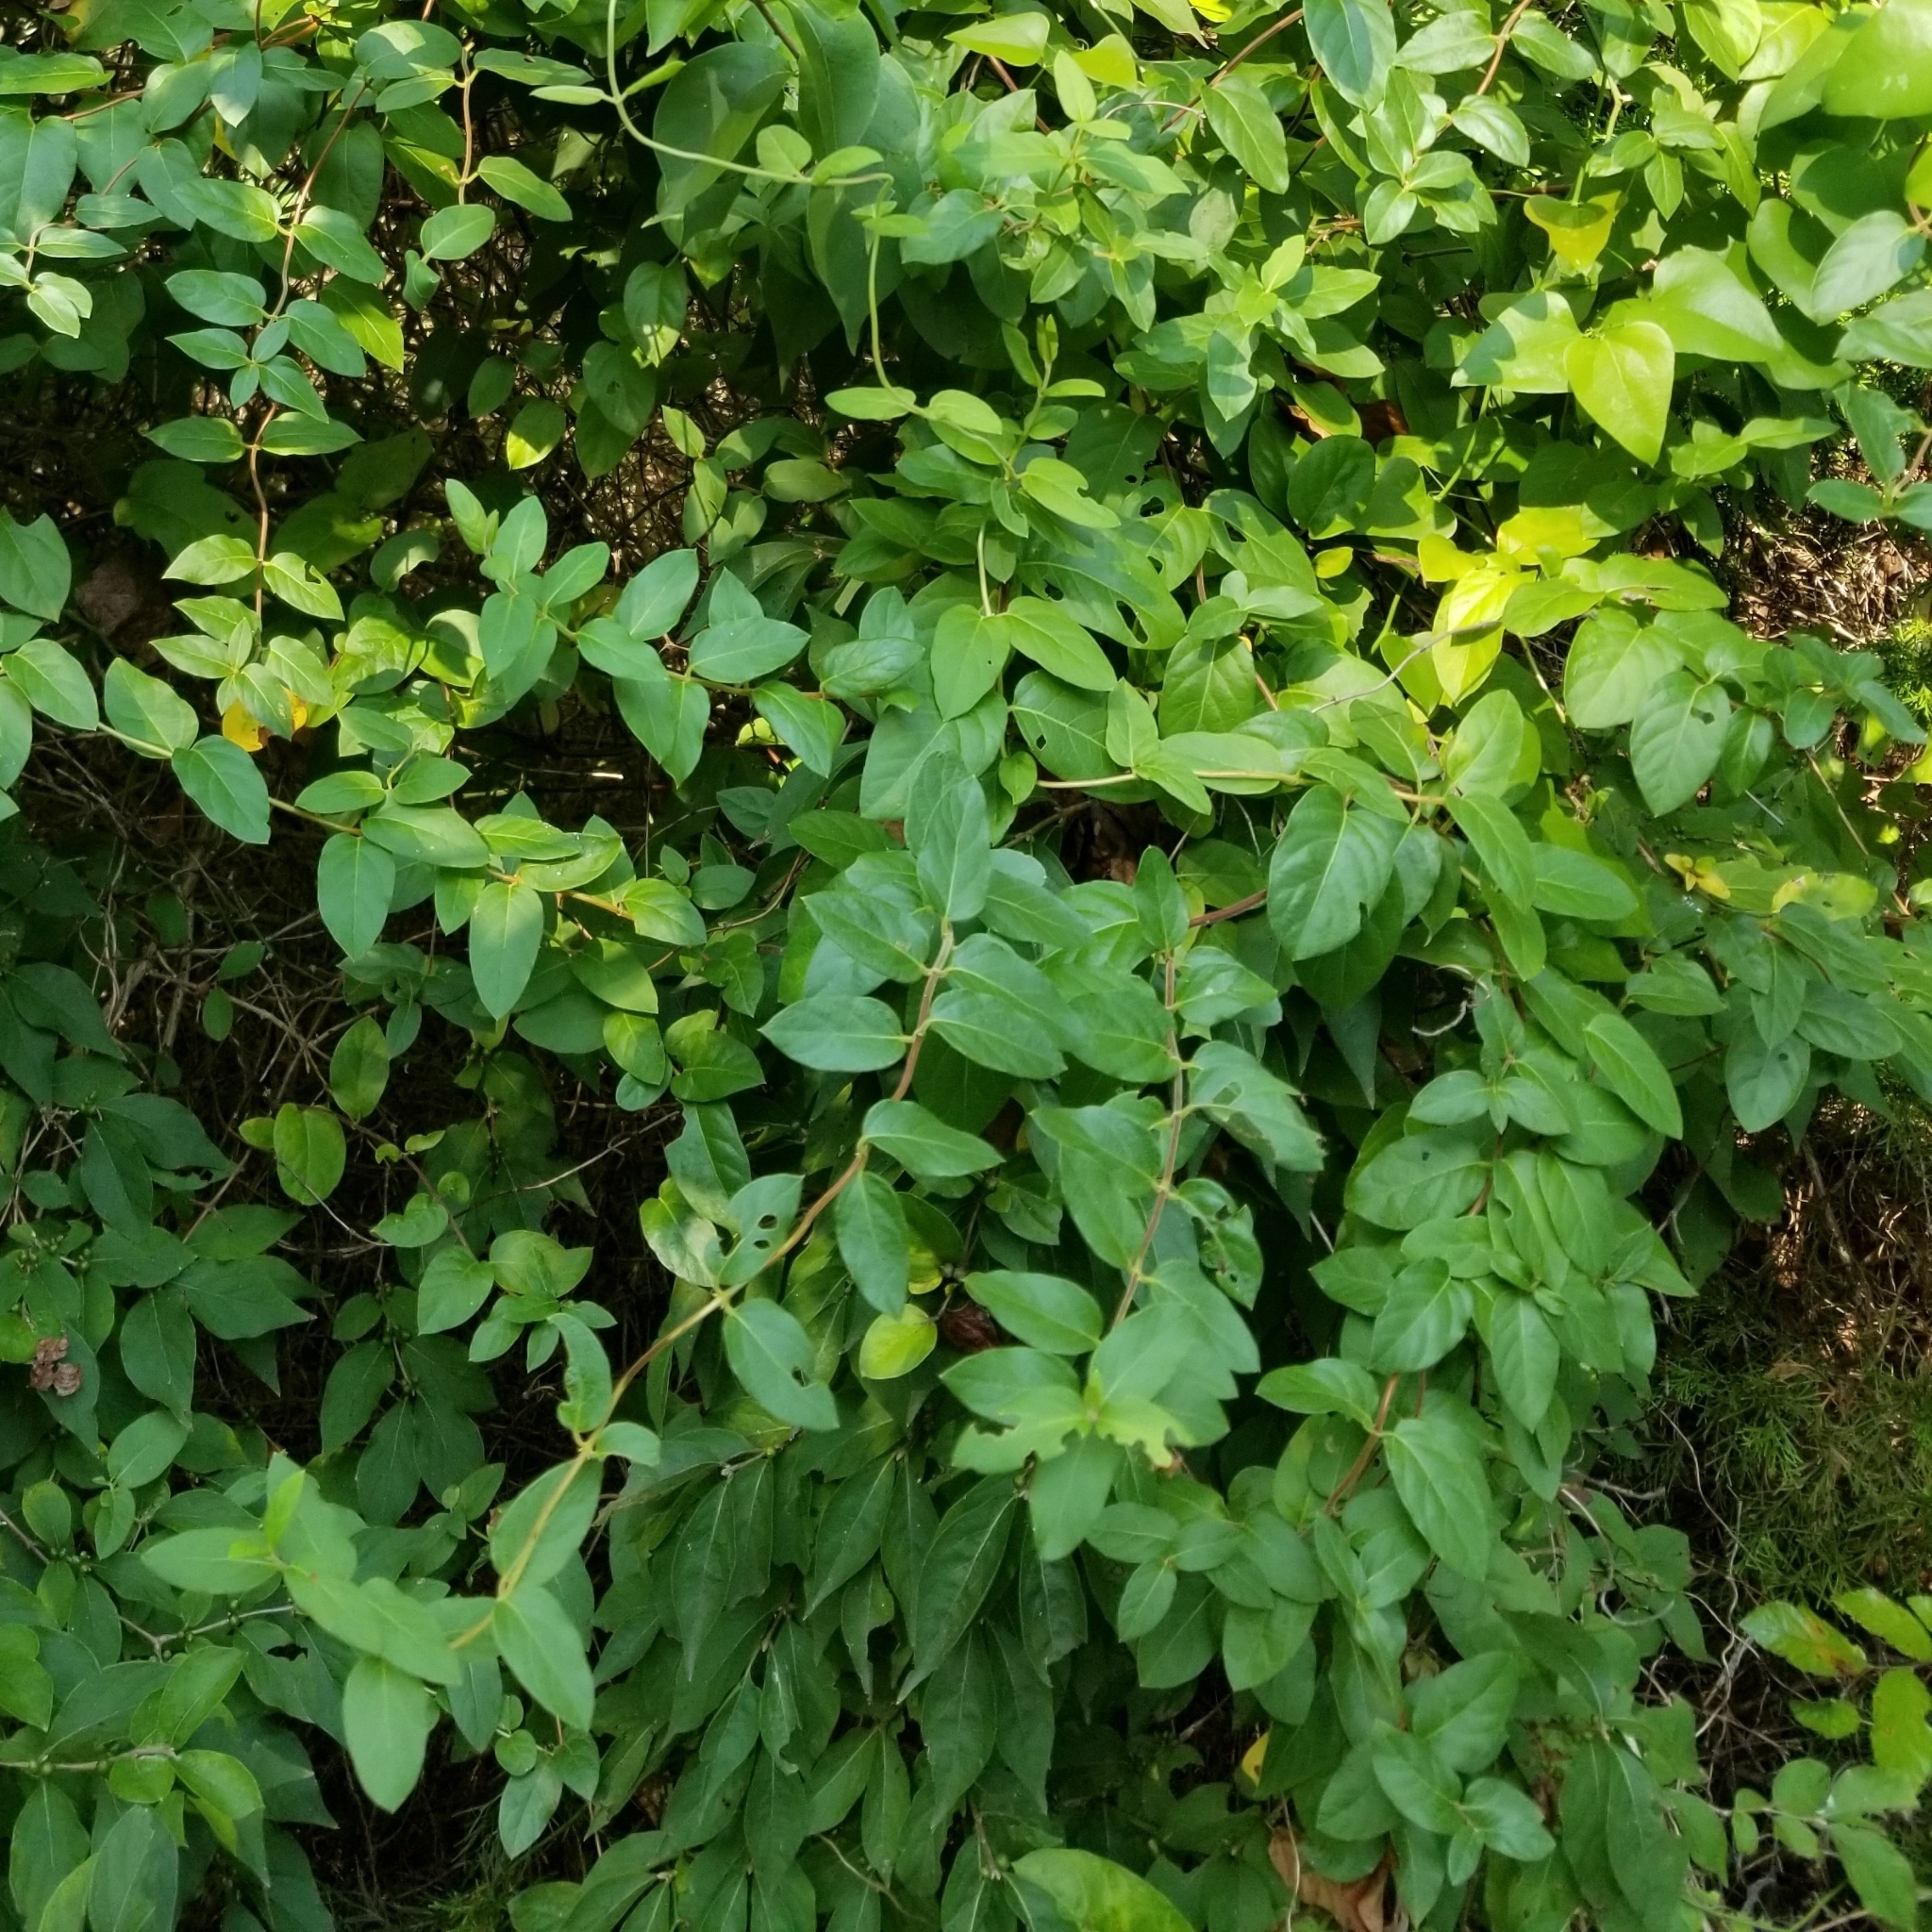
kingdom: Plantae
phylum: Tracheophyta
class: Magnoliopsida
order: Dipsacales
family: Caprifoliaceae
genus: Lonicera
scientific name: Lonicera japonica
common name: Japanese honeysuckle
